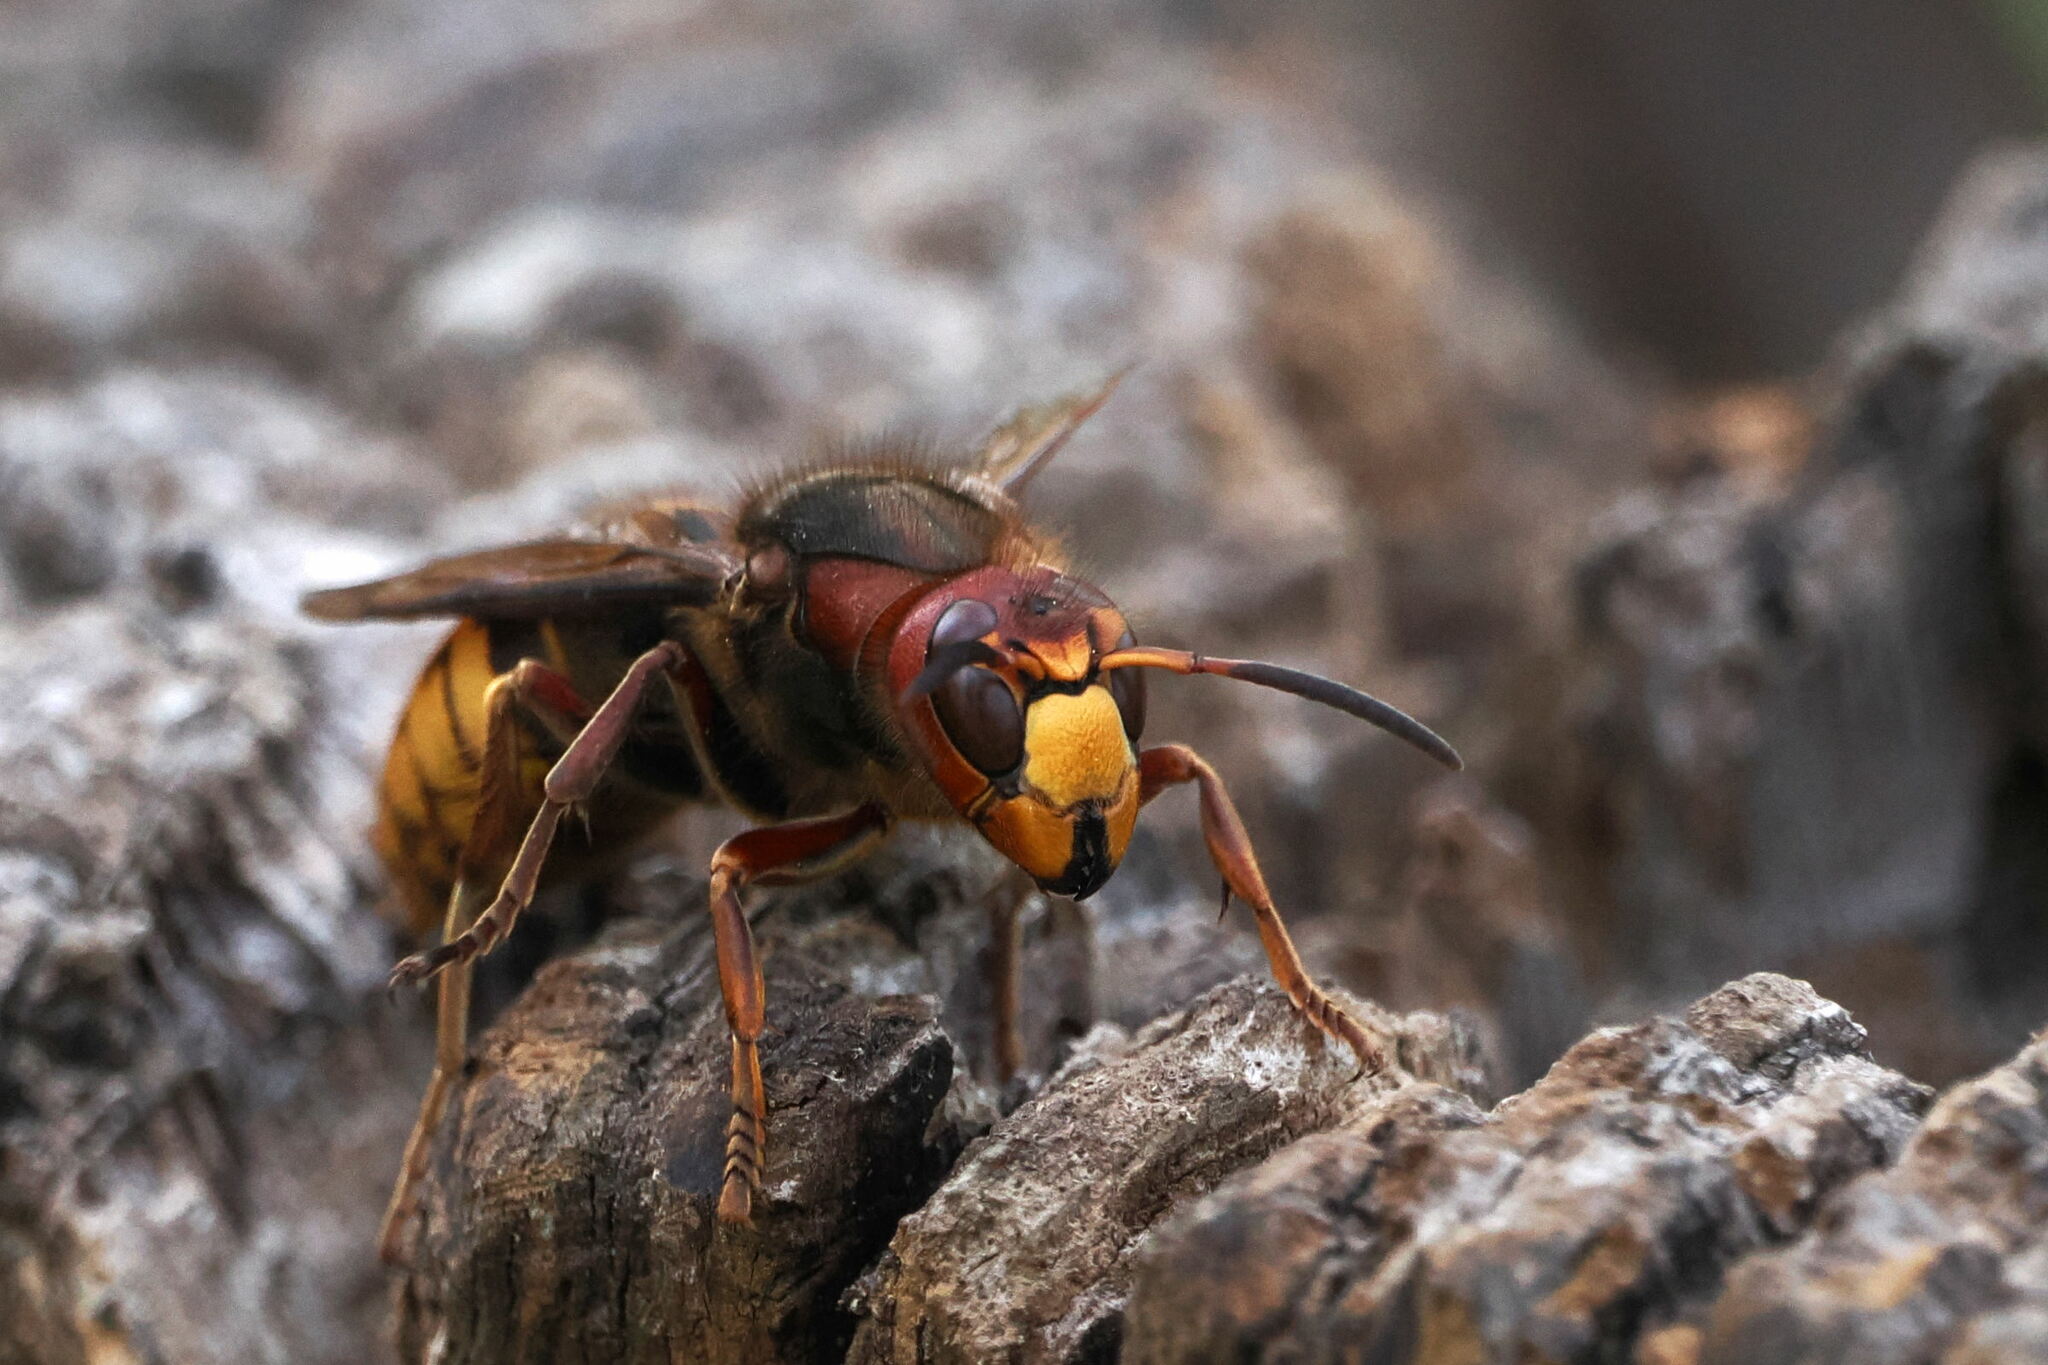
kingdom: Animalia
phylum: Arthropoda
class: Insecta
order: Hymenoptera
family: Vespidae
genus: Vespa
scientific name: Vespa crabro
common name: Hornet
